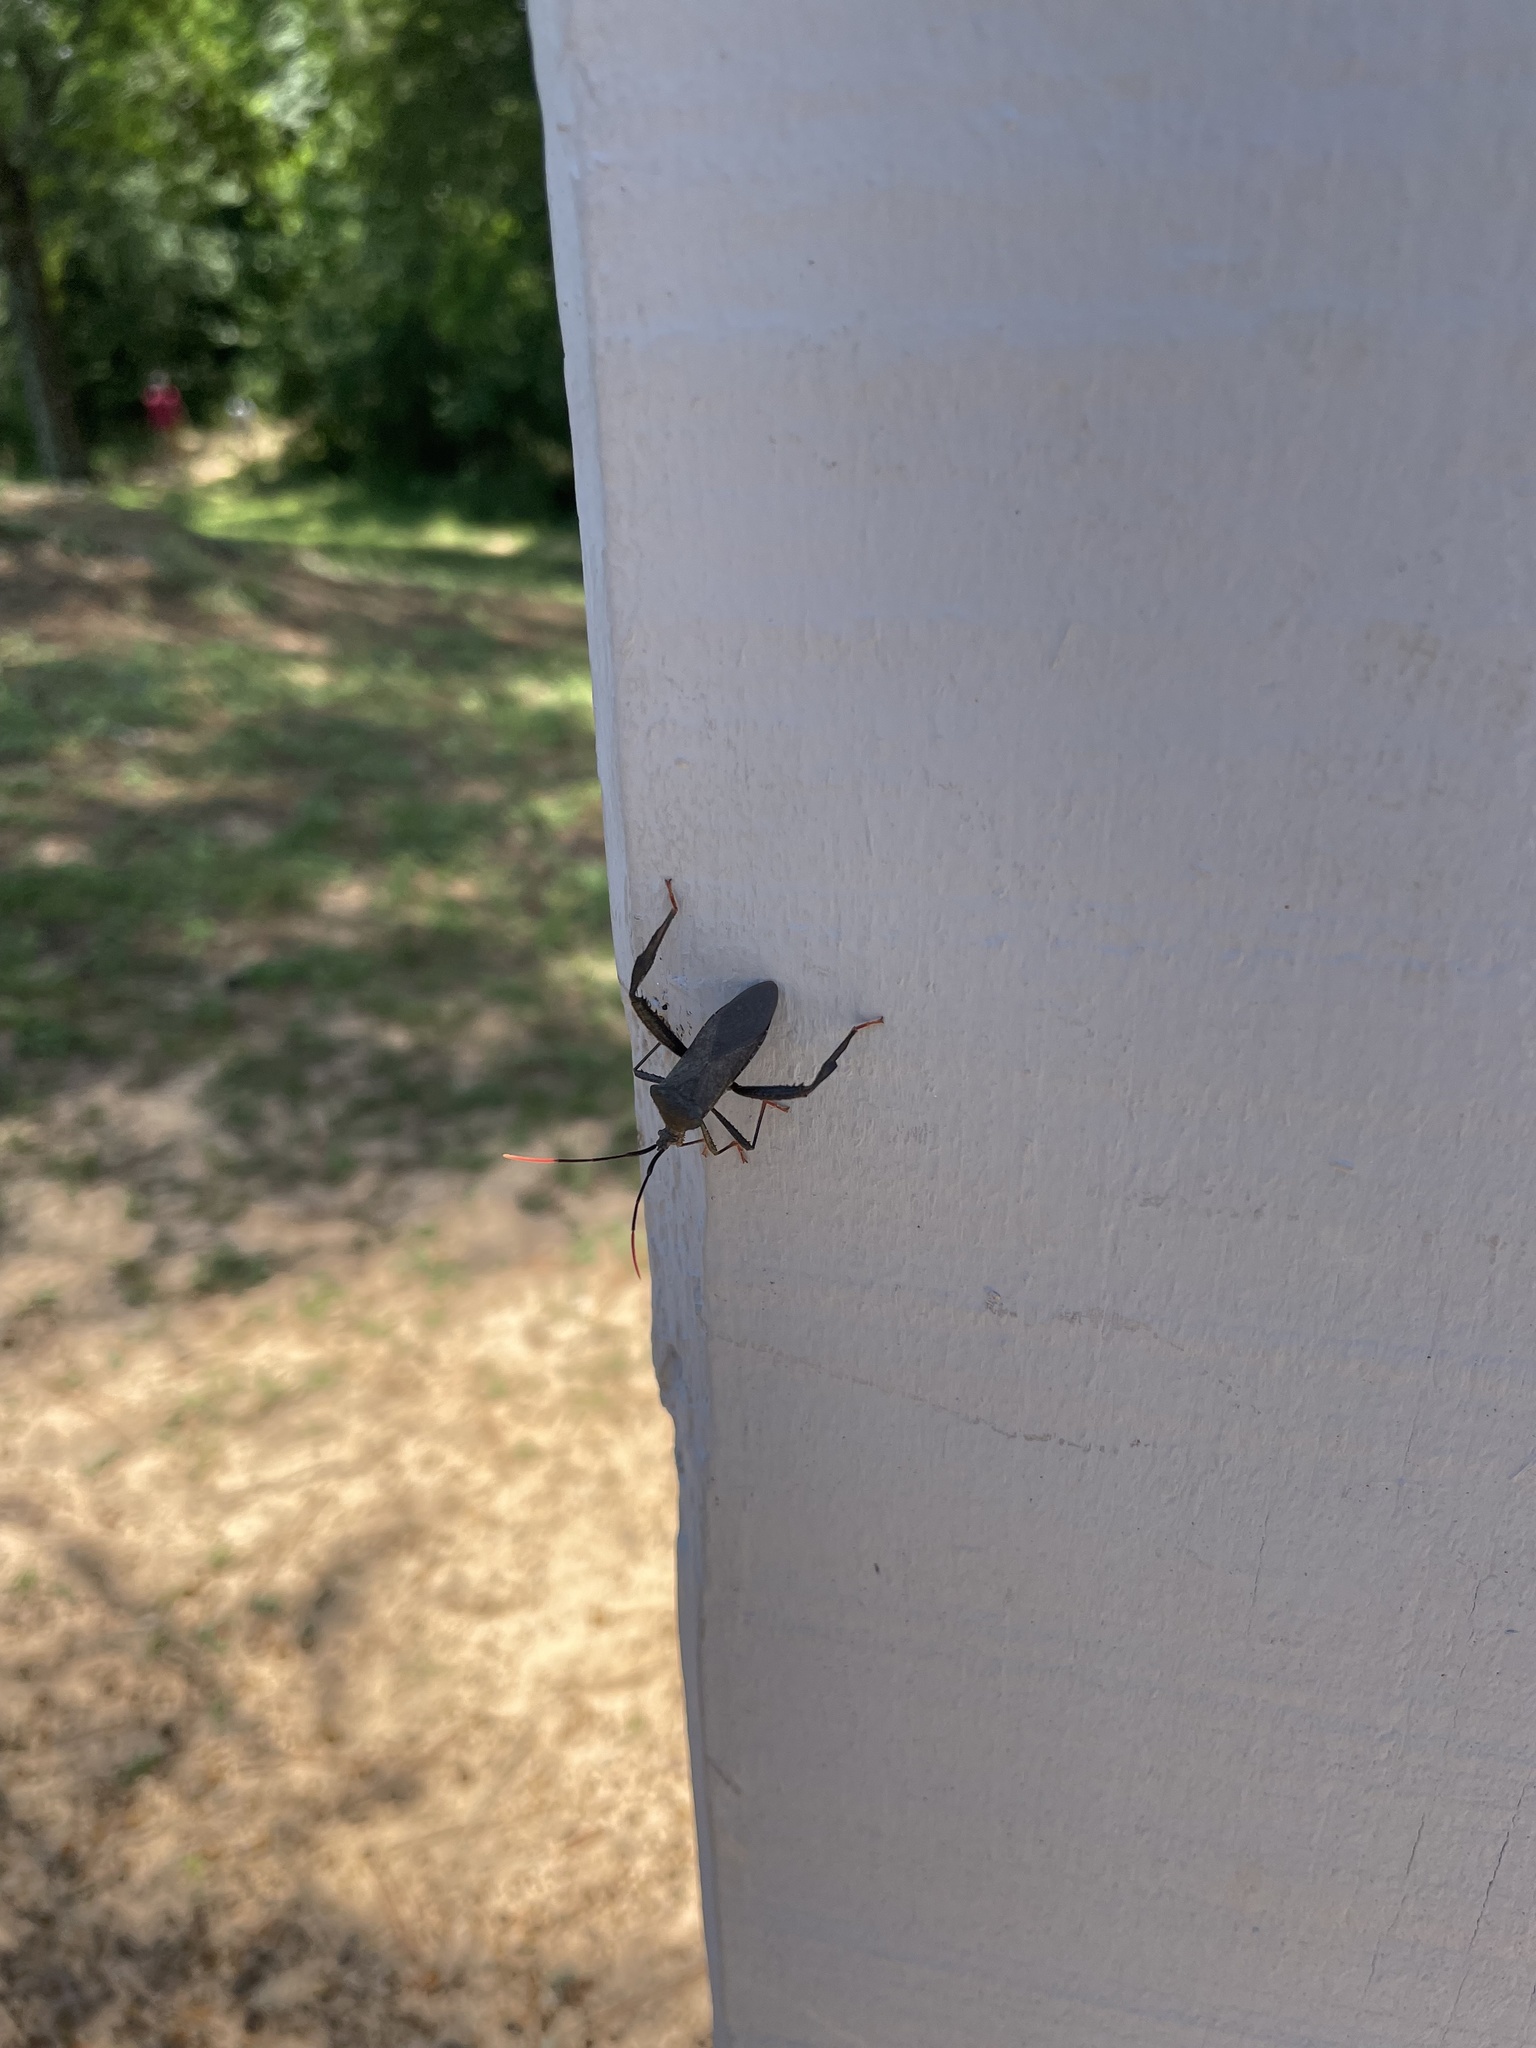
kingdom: Animalia
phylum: Arthropoda
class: Insecta
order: Hemiptera
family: Coreidae
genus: Acanthocephala
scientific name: Acanthocephala terminalis
